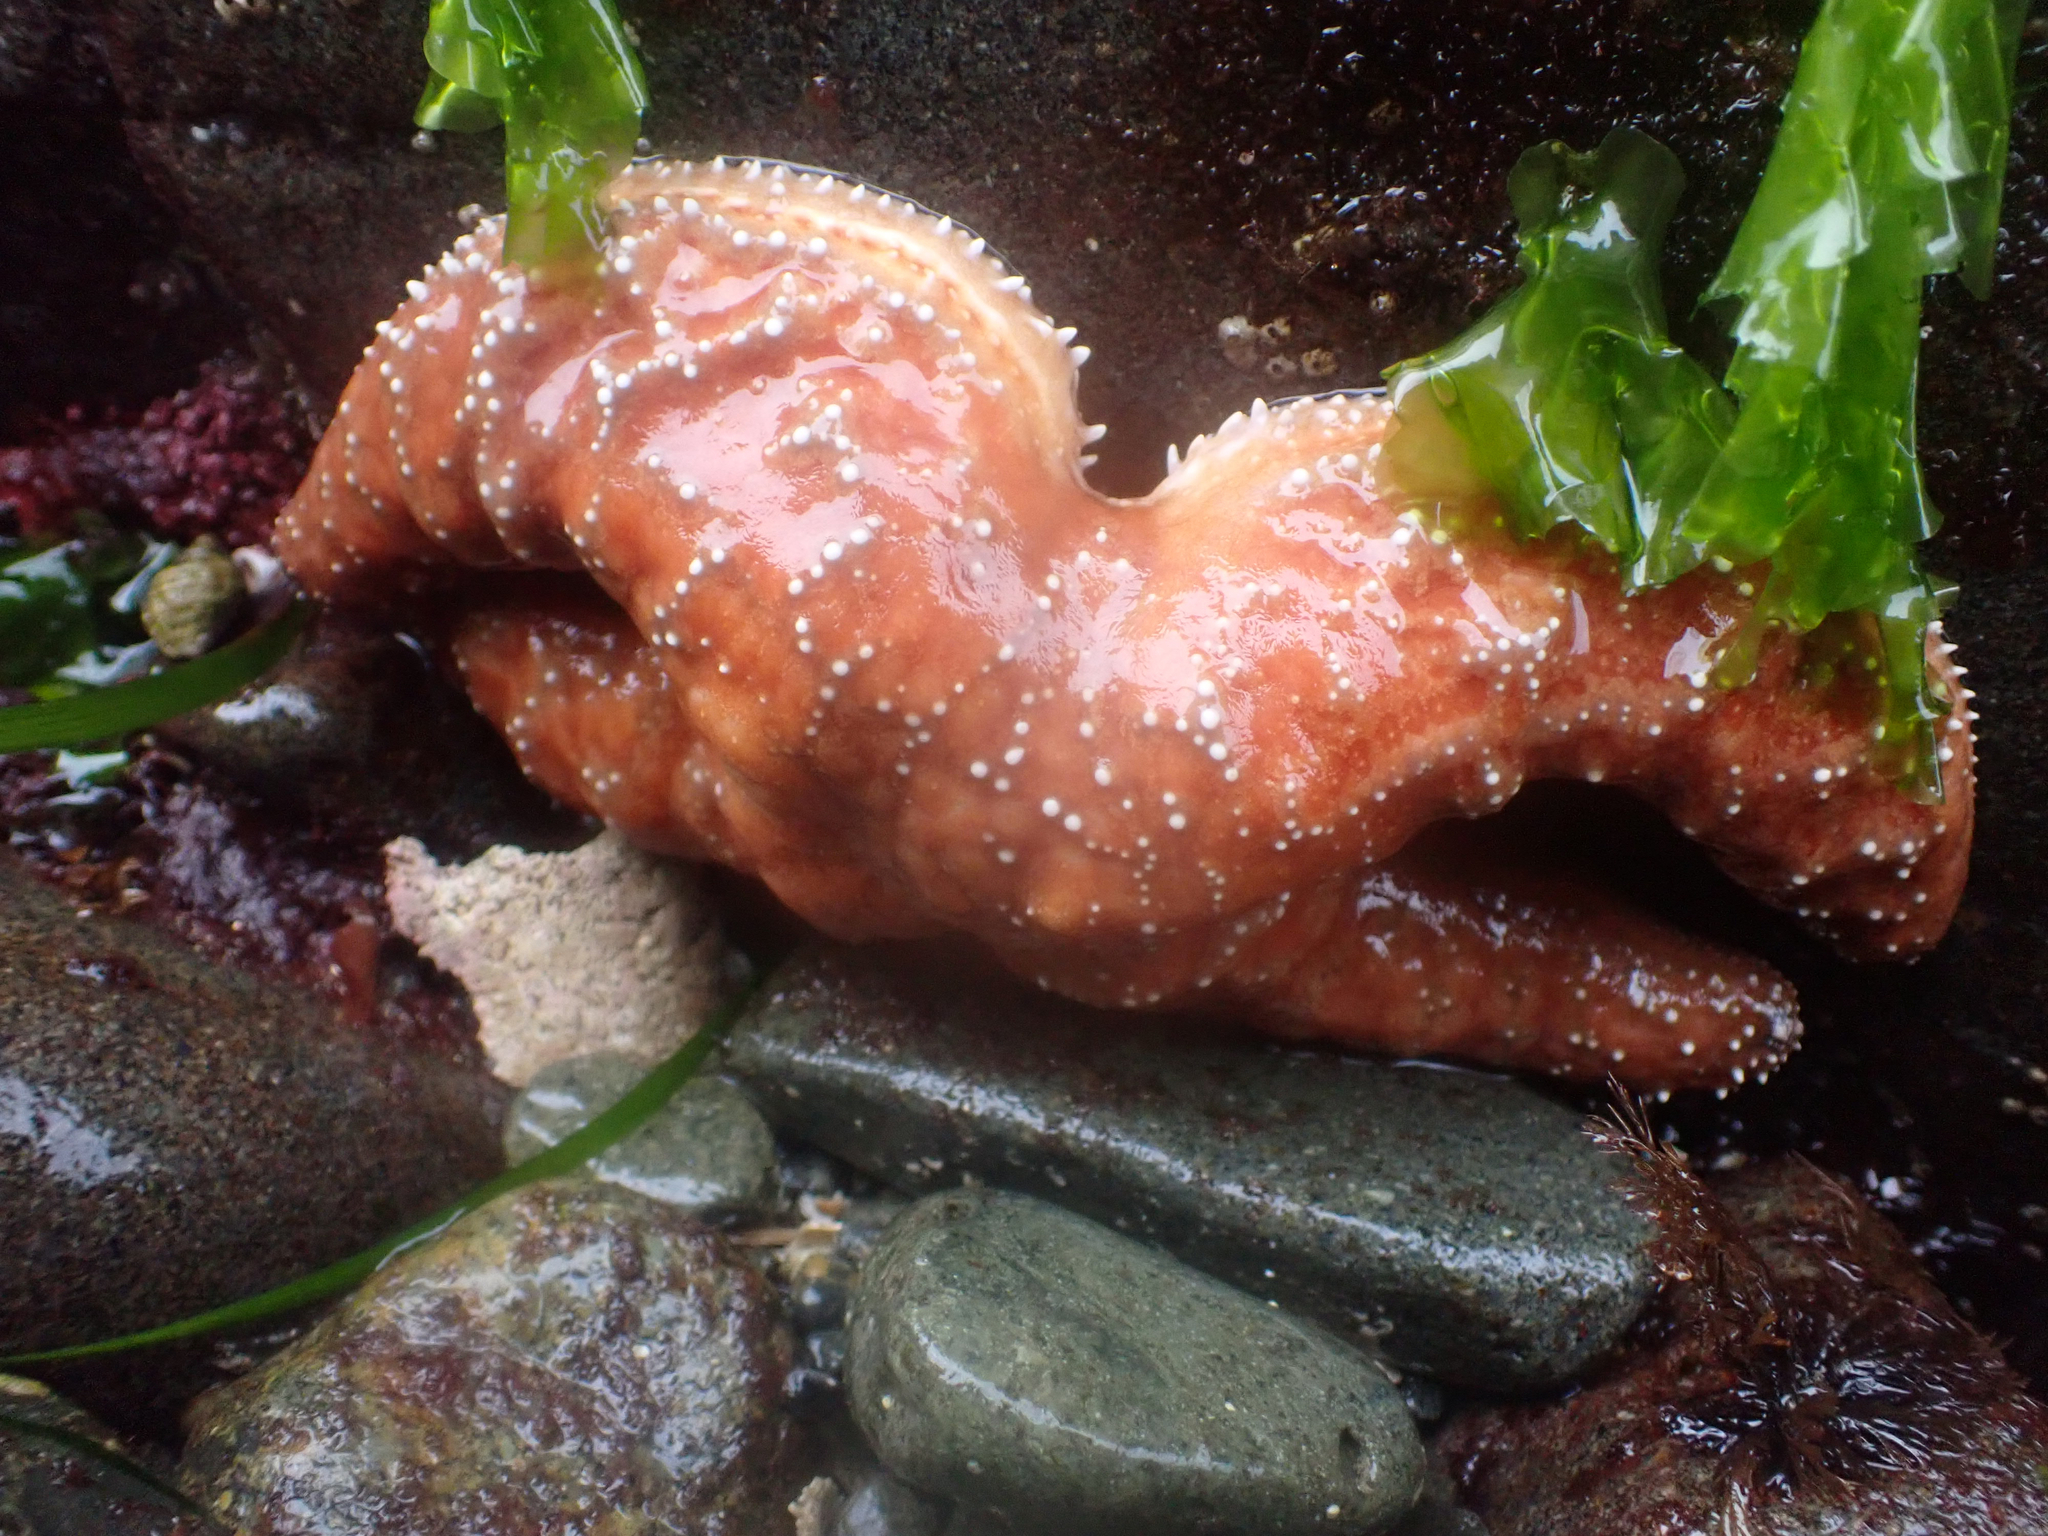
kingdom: Animalia
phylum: Echinodermata
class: Asteroidea
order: Forcipulatida
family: Asteriidae
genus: Pisaster
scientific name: Pisaster ochraceus
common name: Ochre stars
